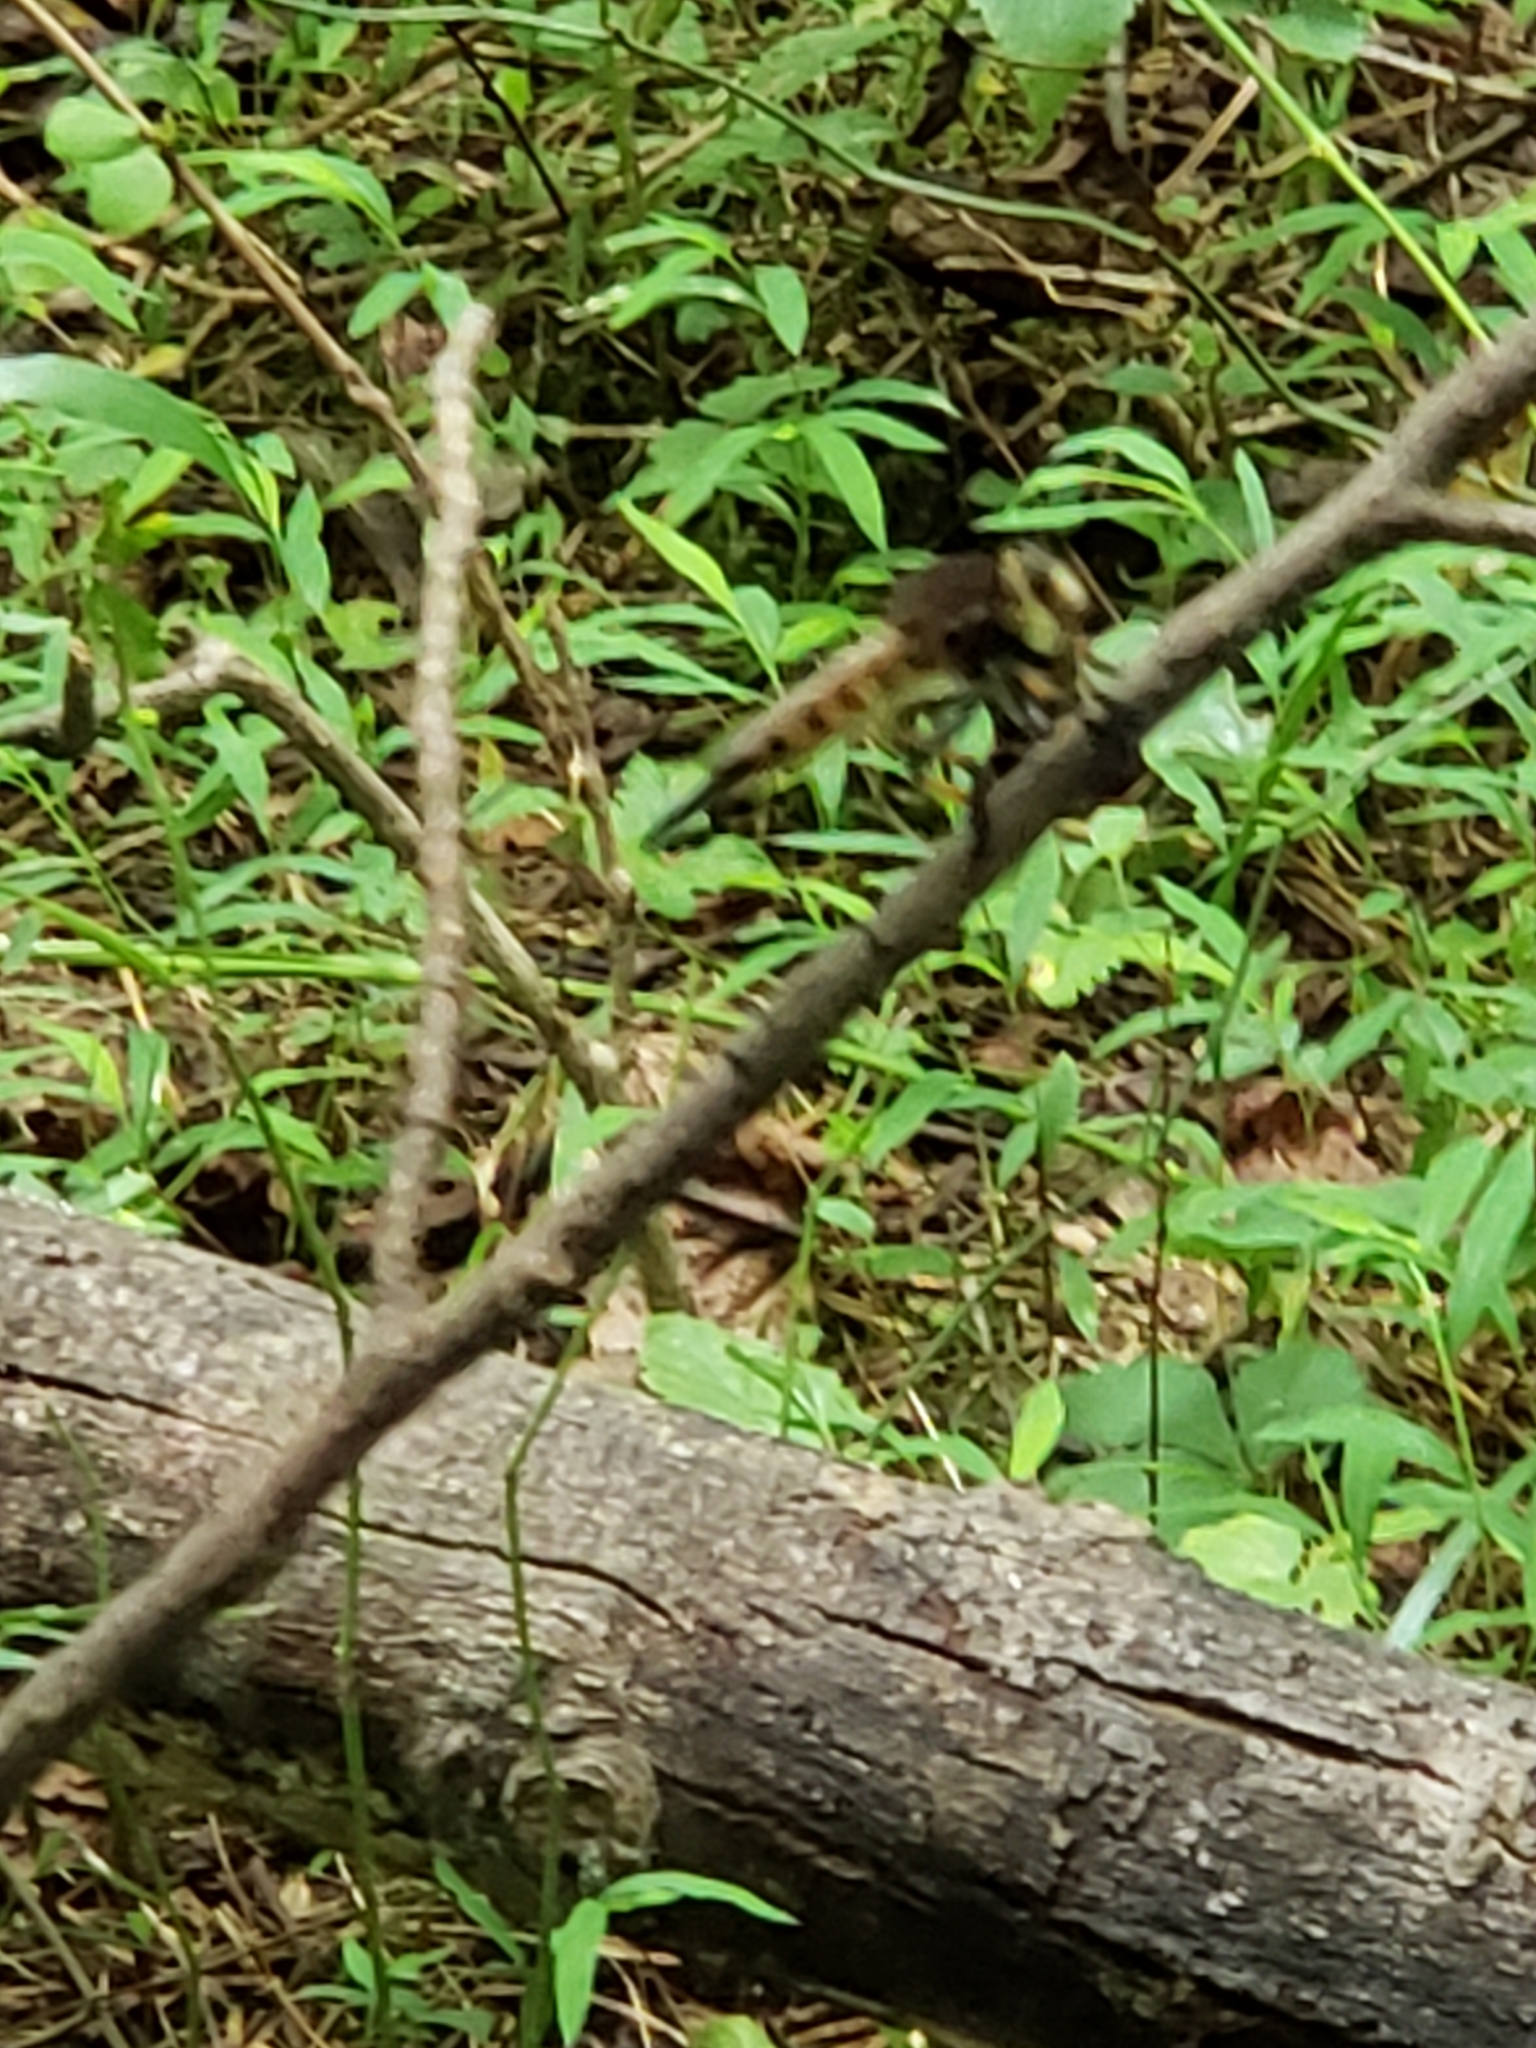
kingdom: Animalia
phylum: Arthropoda
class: Insecta
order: Diptera
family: Asilidae
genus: Promachus
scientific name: Promachus rufipes
